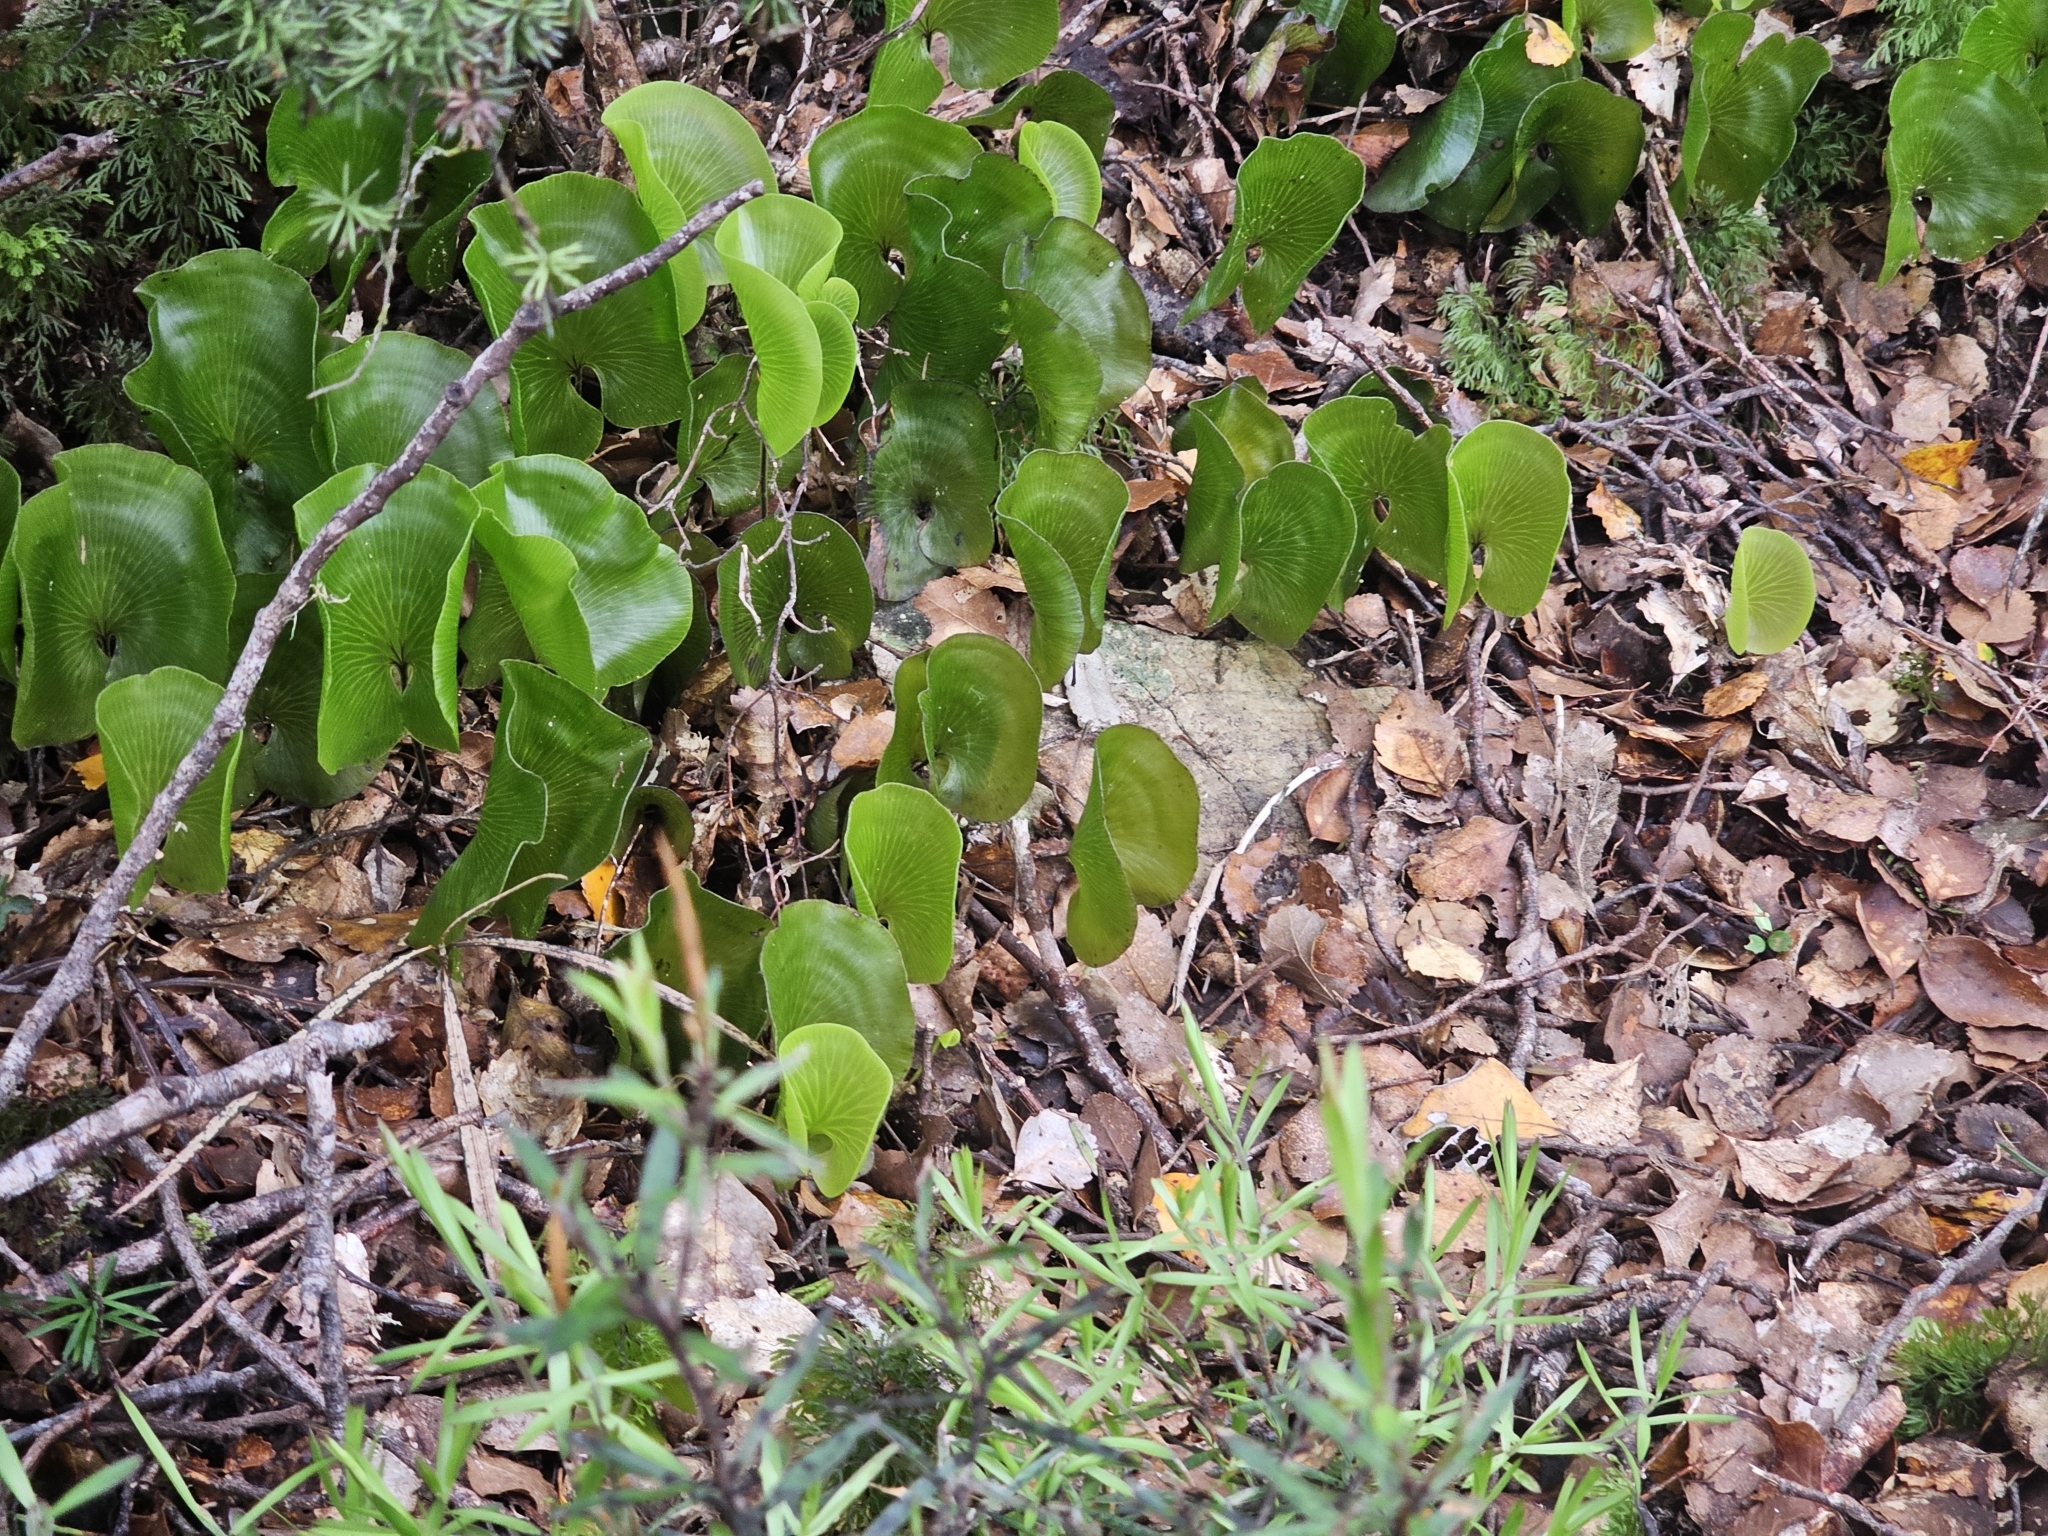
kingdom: Plantae
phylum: Tracheophyta
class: Polypodiopsida
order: Hymenophyllales
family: Hymenophyllaceae
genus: Hymenophyllum
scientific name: Hymenophyllum nephrophyllum
